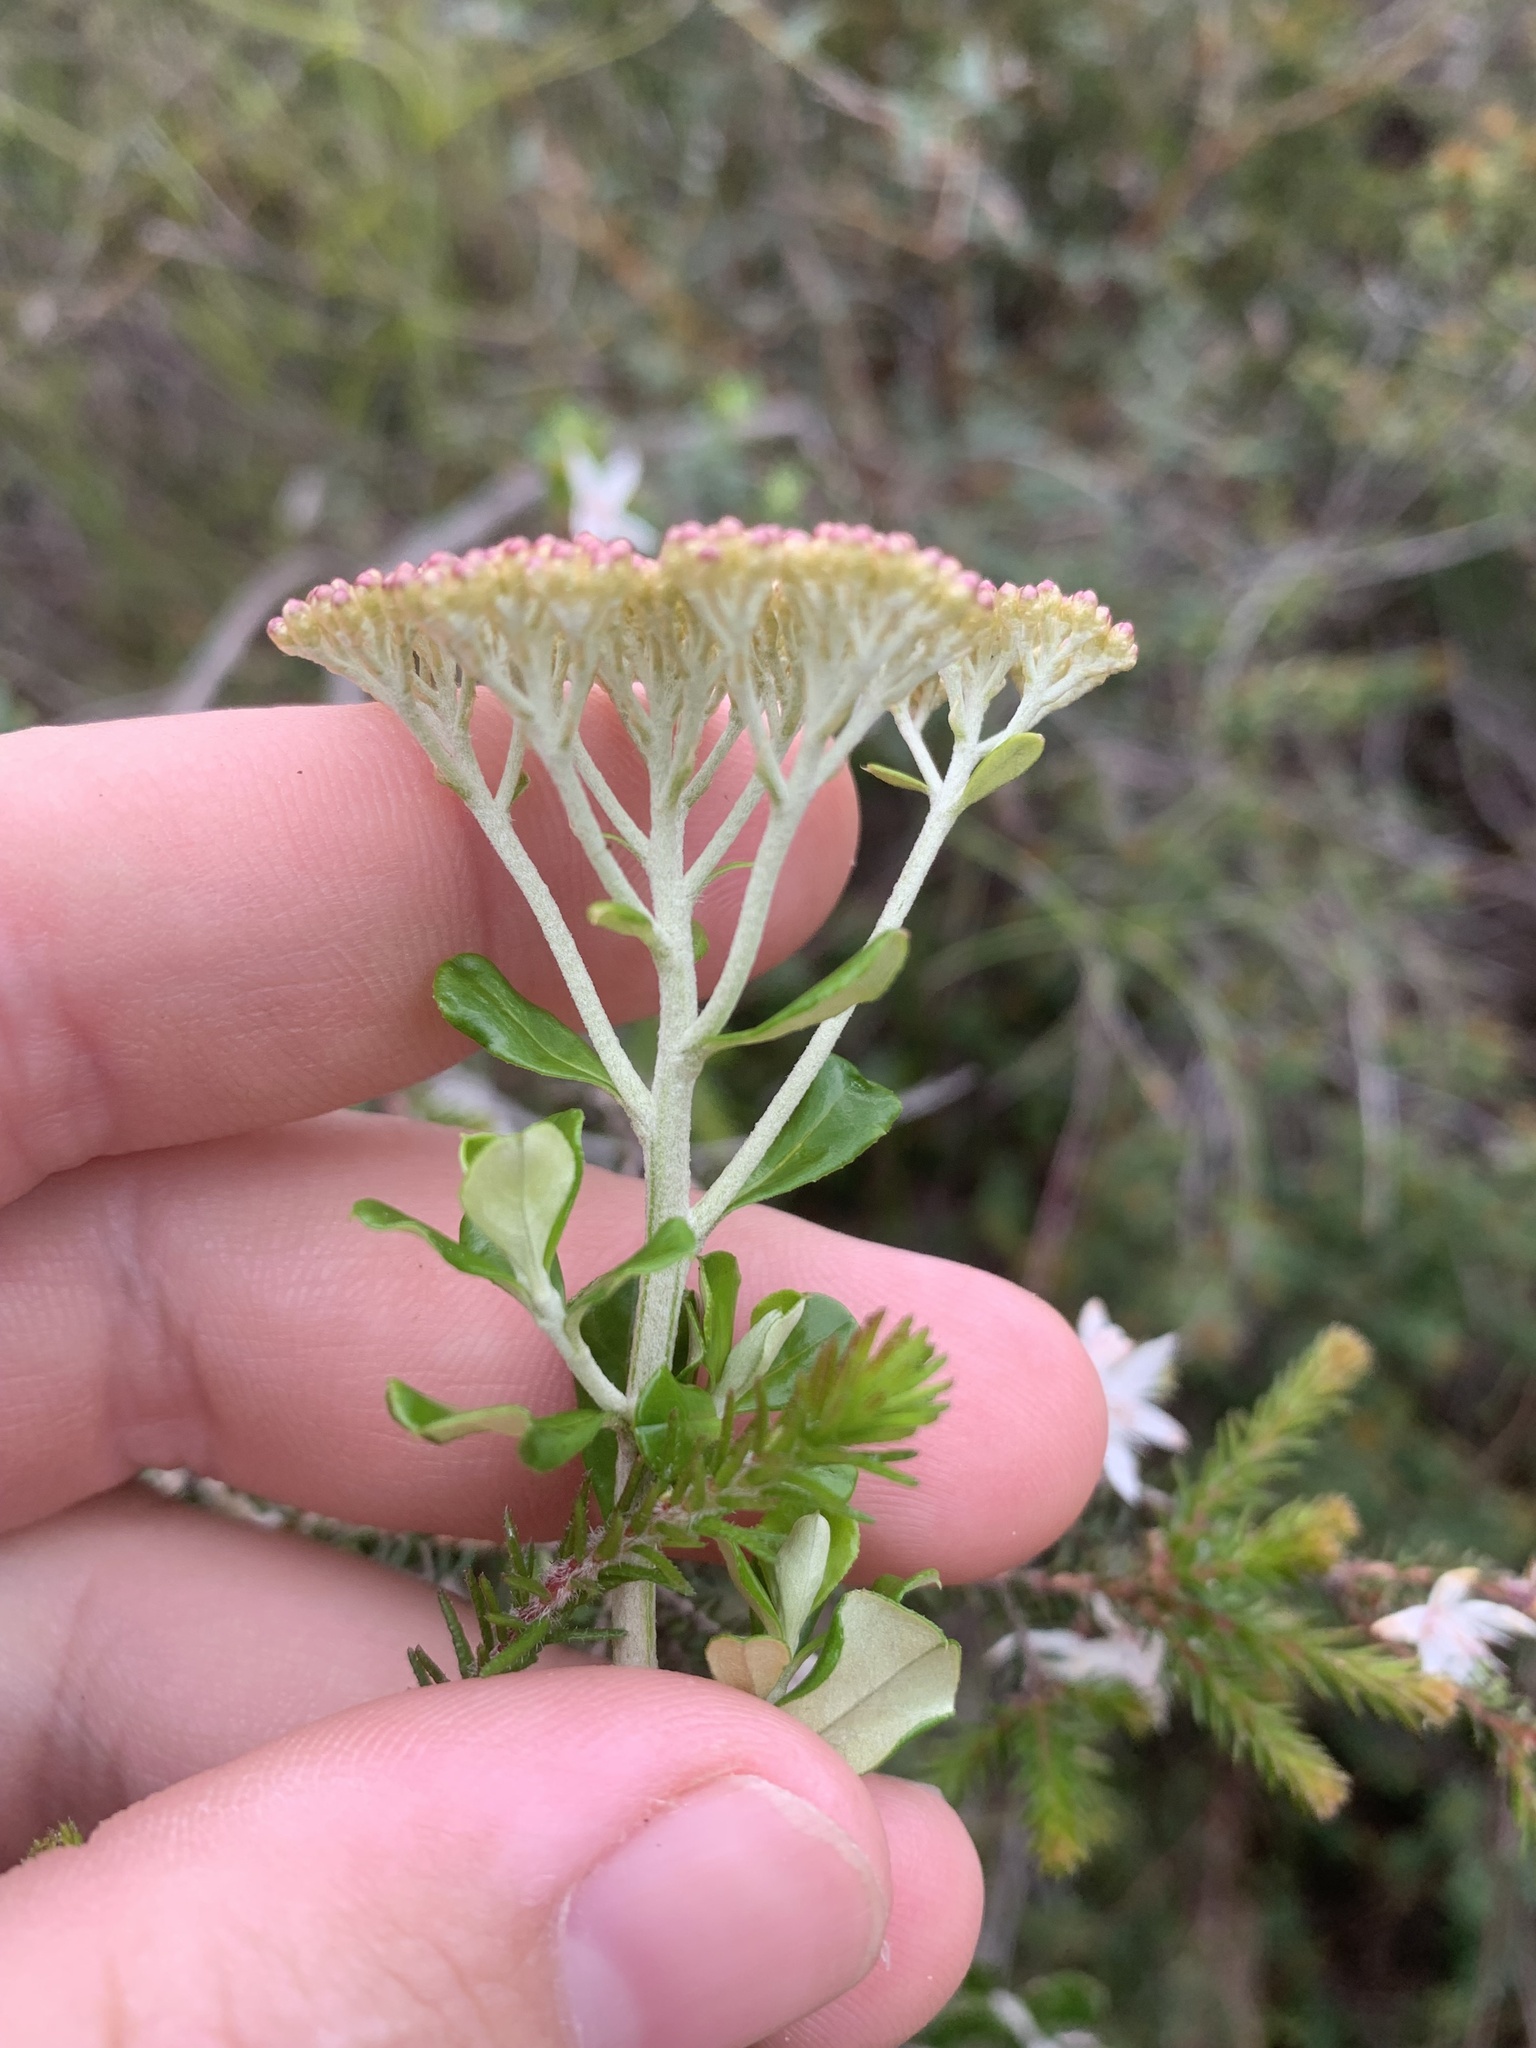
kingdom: Plantae
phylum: Tracheophyta
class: Magnoliopsida
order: Asterales
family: Asteraceae
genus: Ozothamnus
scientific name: Ozothamnus obcordatus
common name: Grey everlasting
